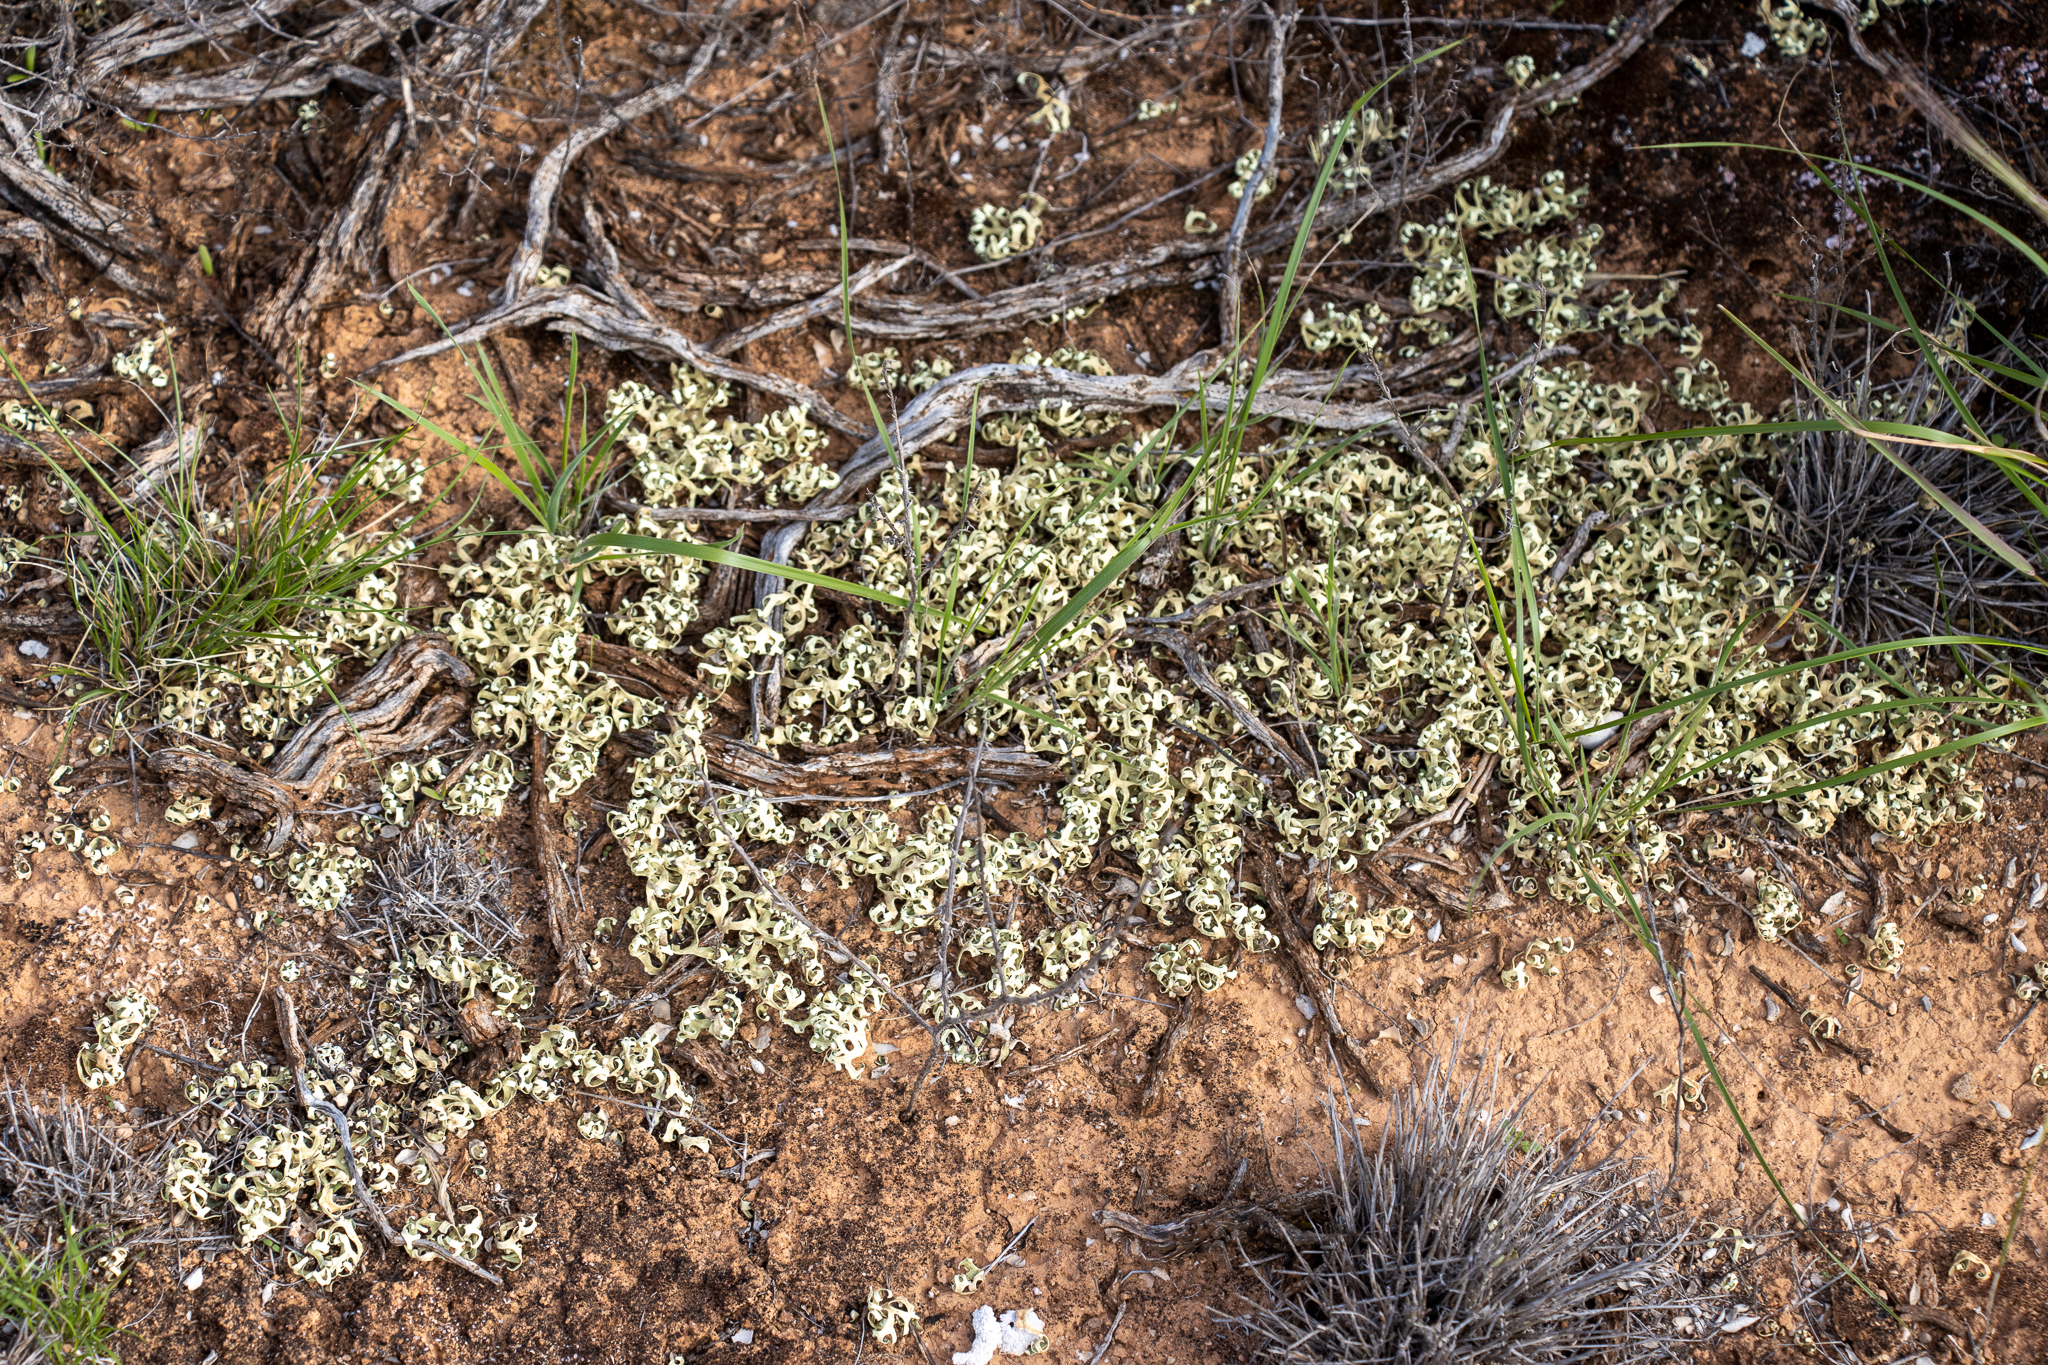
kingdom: Fungi
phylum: Ascomycota
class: Lecanoromycetes
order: Lecanorales
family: Parmeliaceae
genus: Xanthoparmelia
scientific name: Xanthoparmelia semiviridis
